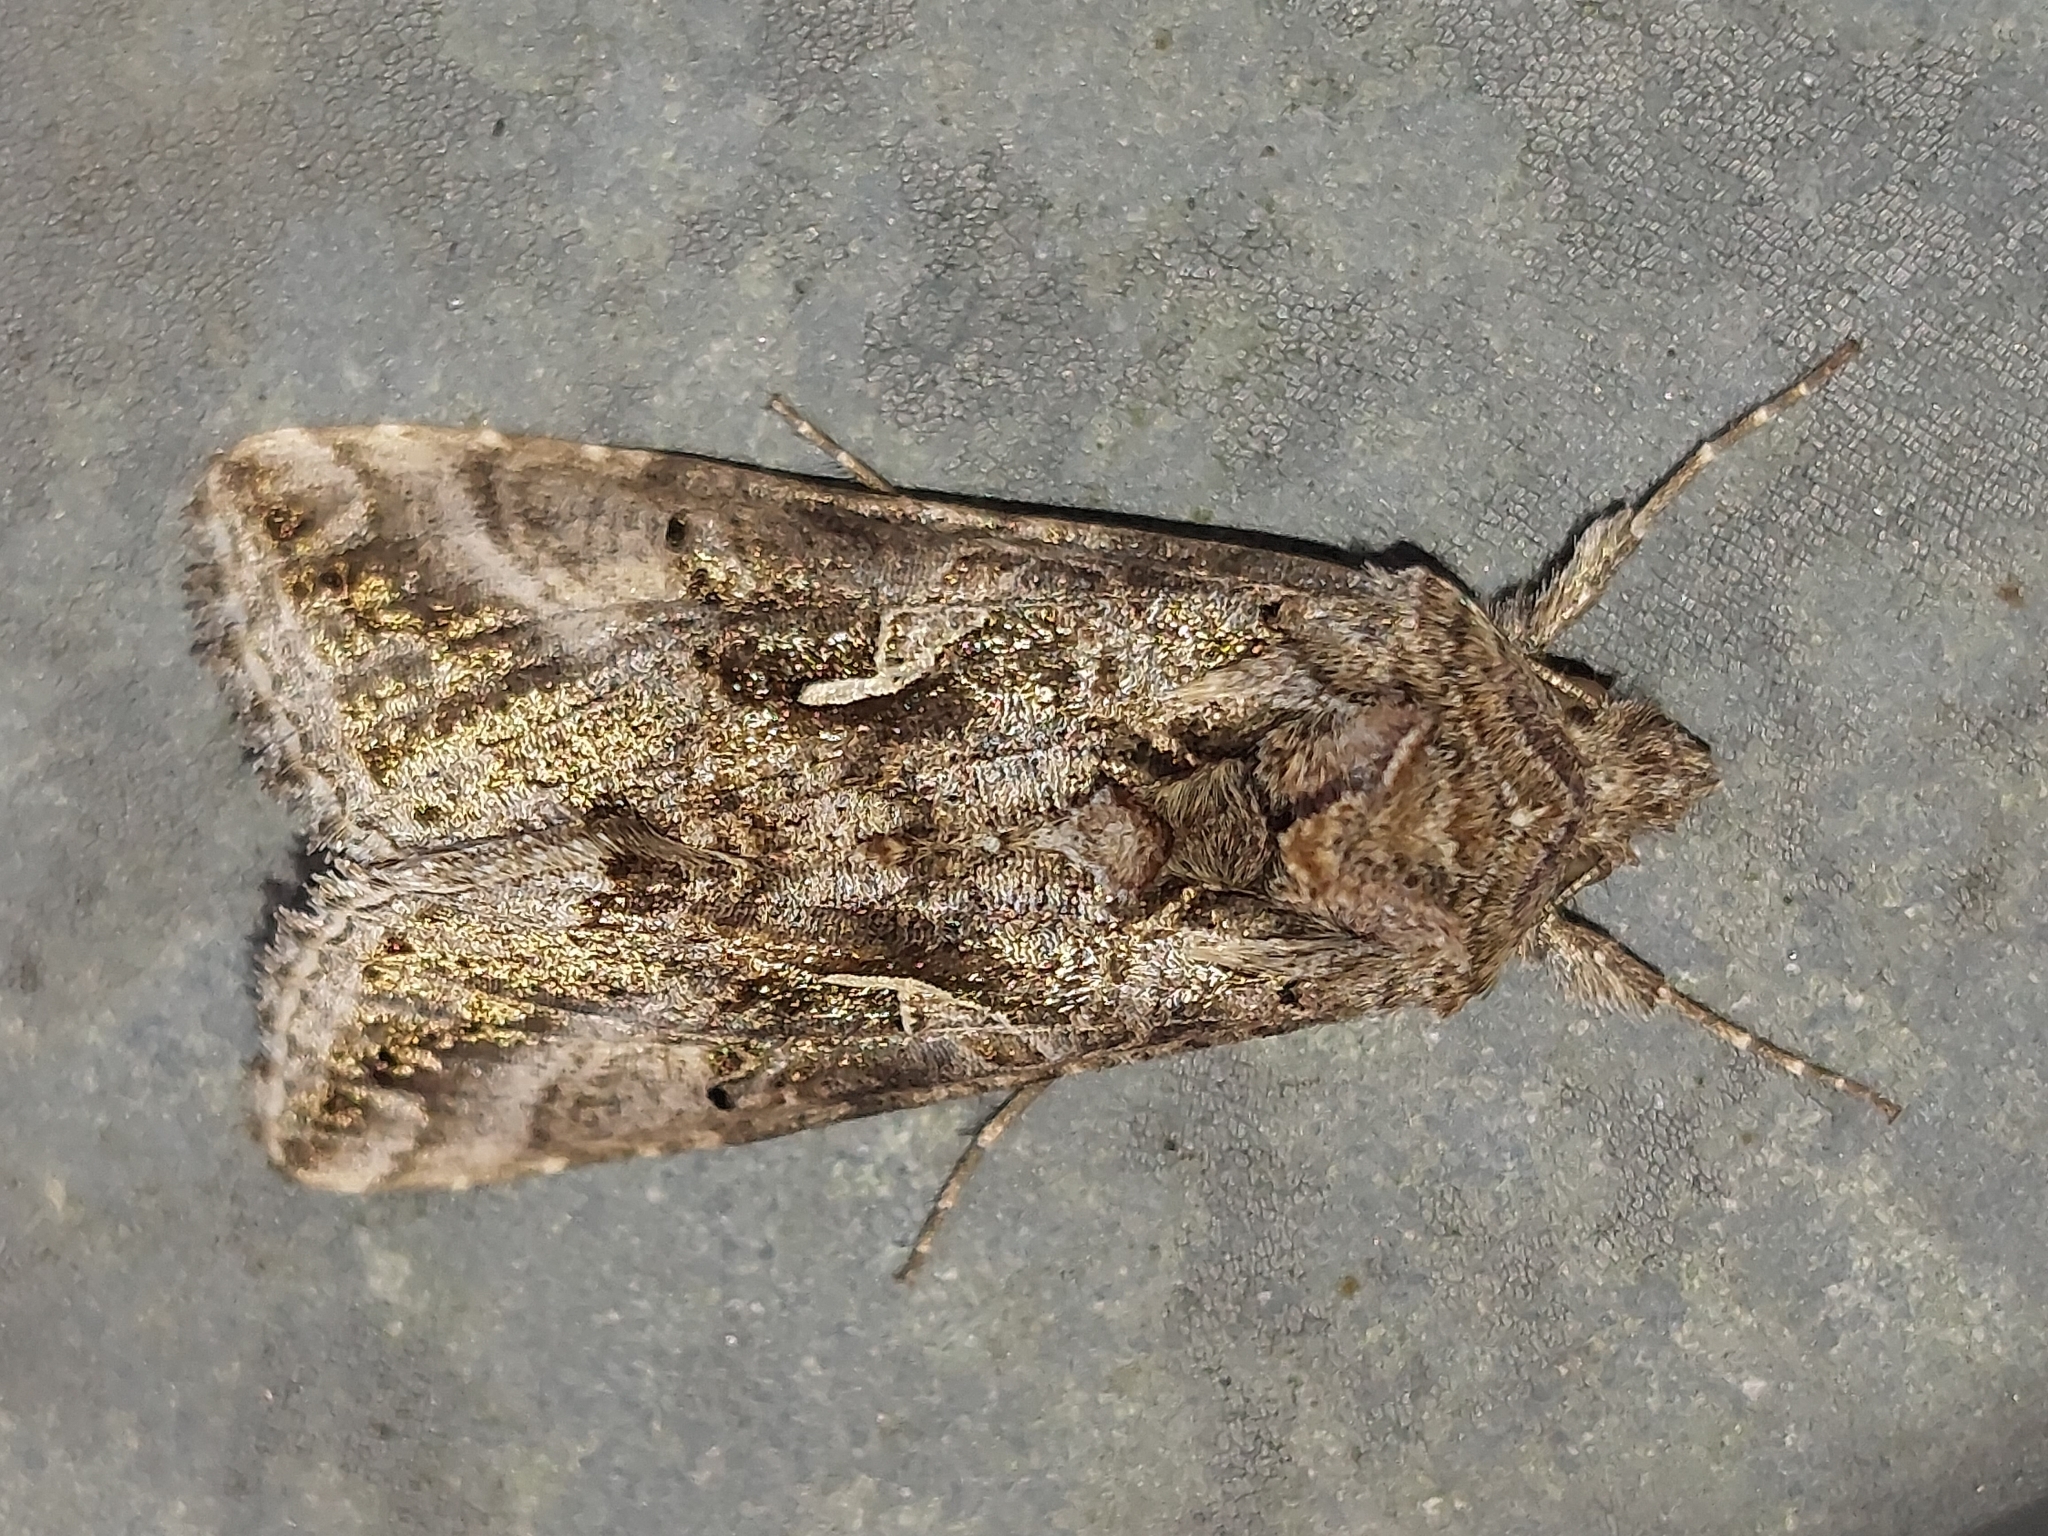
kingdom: Animalia
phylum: Arthropoda
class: Insecta
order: Lepidoptera
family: Noctuidae
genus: Autographa
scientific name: Autographa gamma
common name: Silver y
